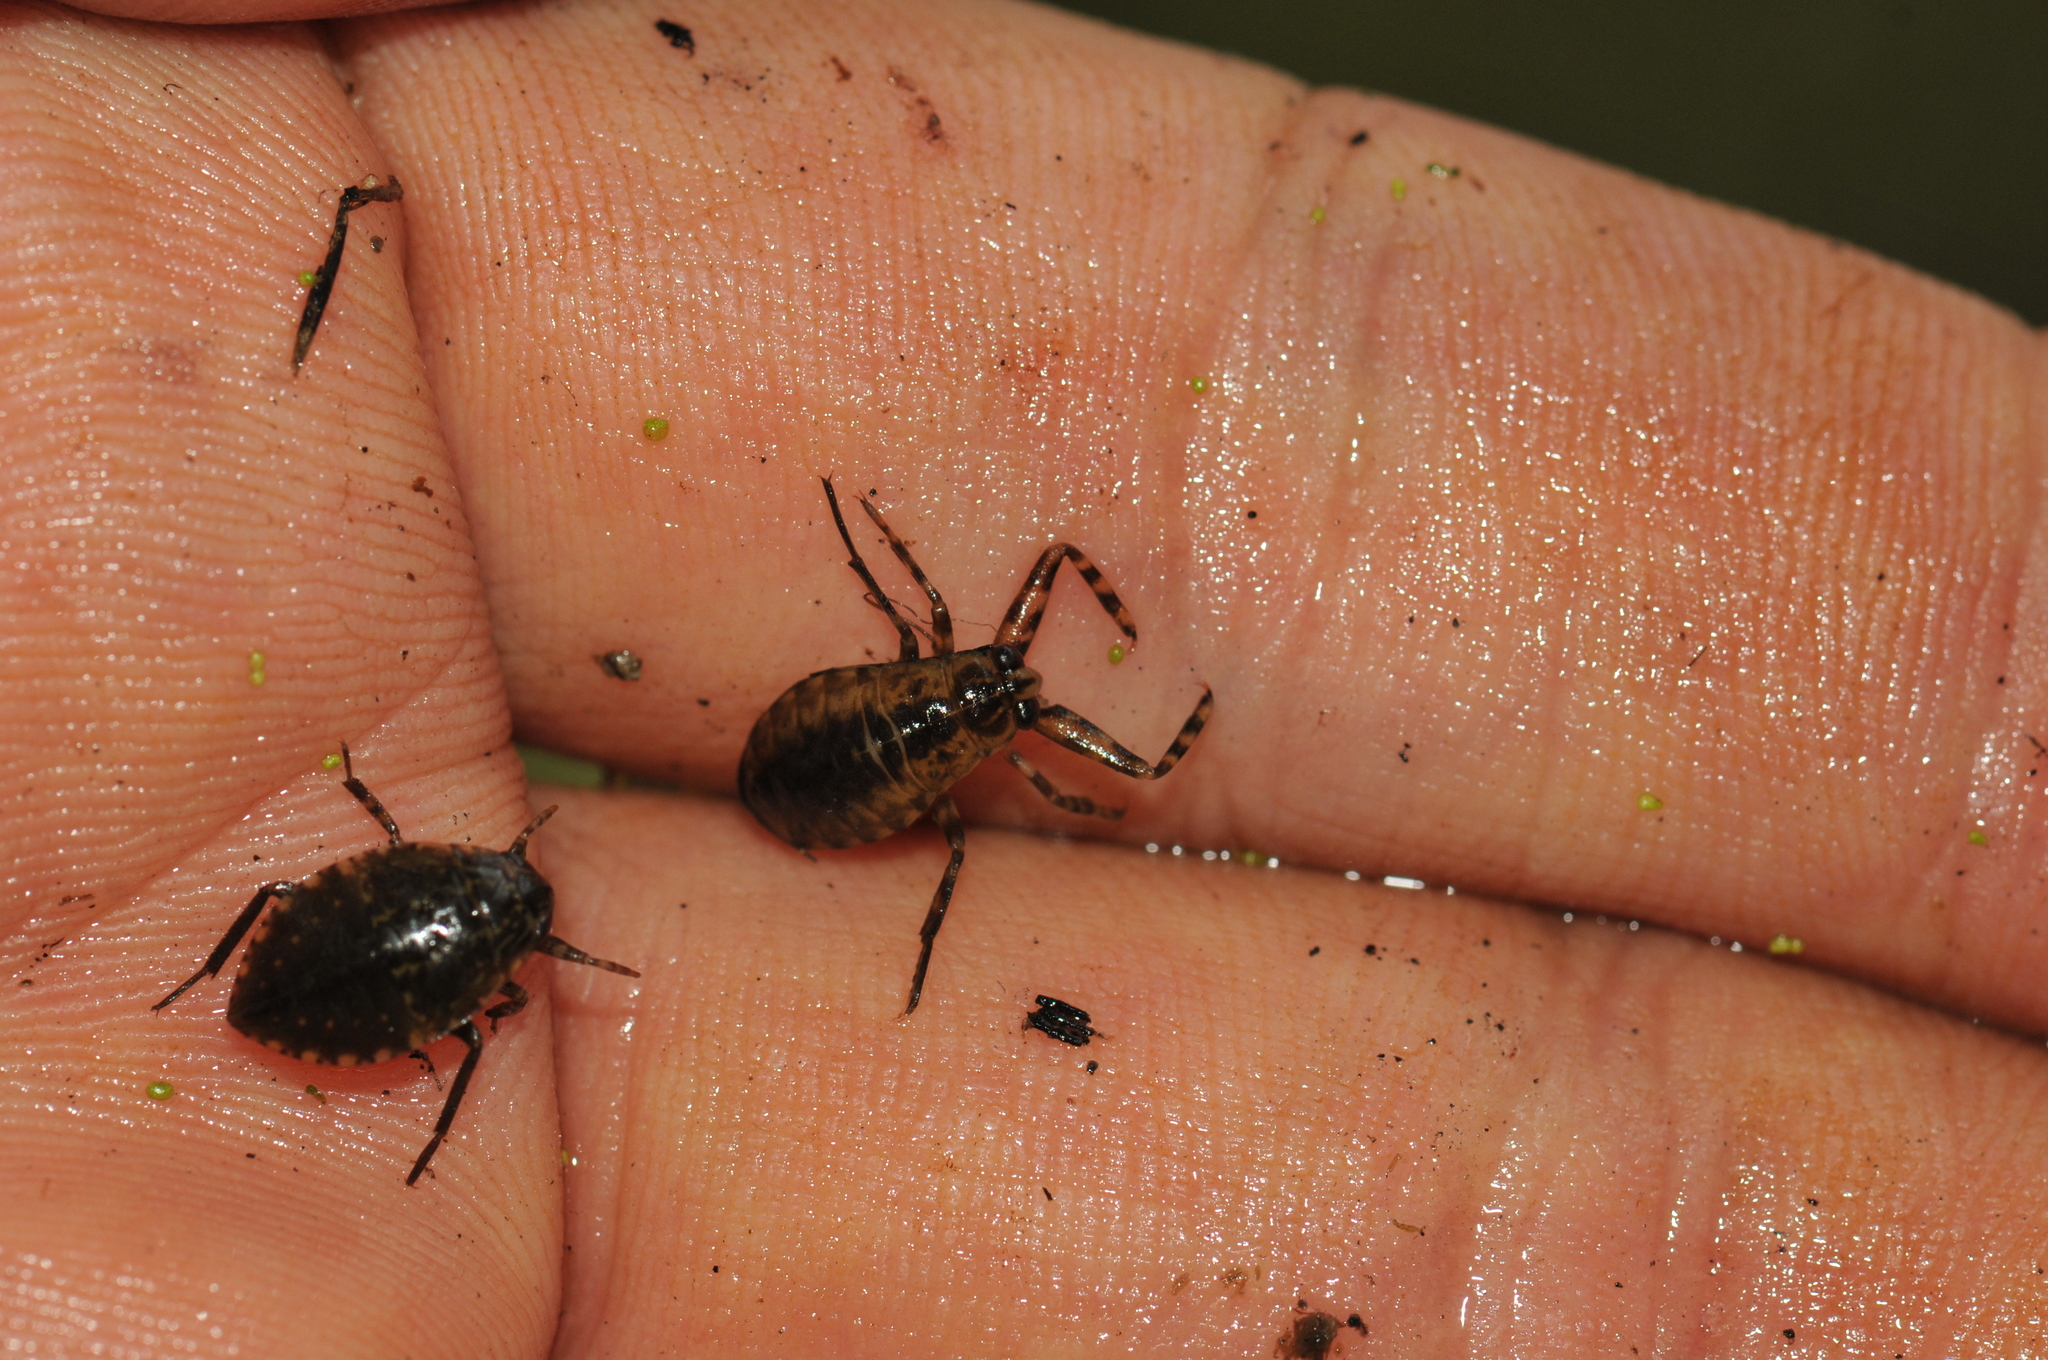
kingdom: Animalia
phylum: Arthropoda
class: Insecta
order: Hemiptera
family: Belostomatidae
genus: Lethocerus
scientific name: Lethocerus indicus
